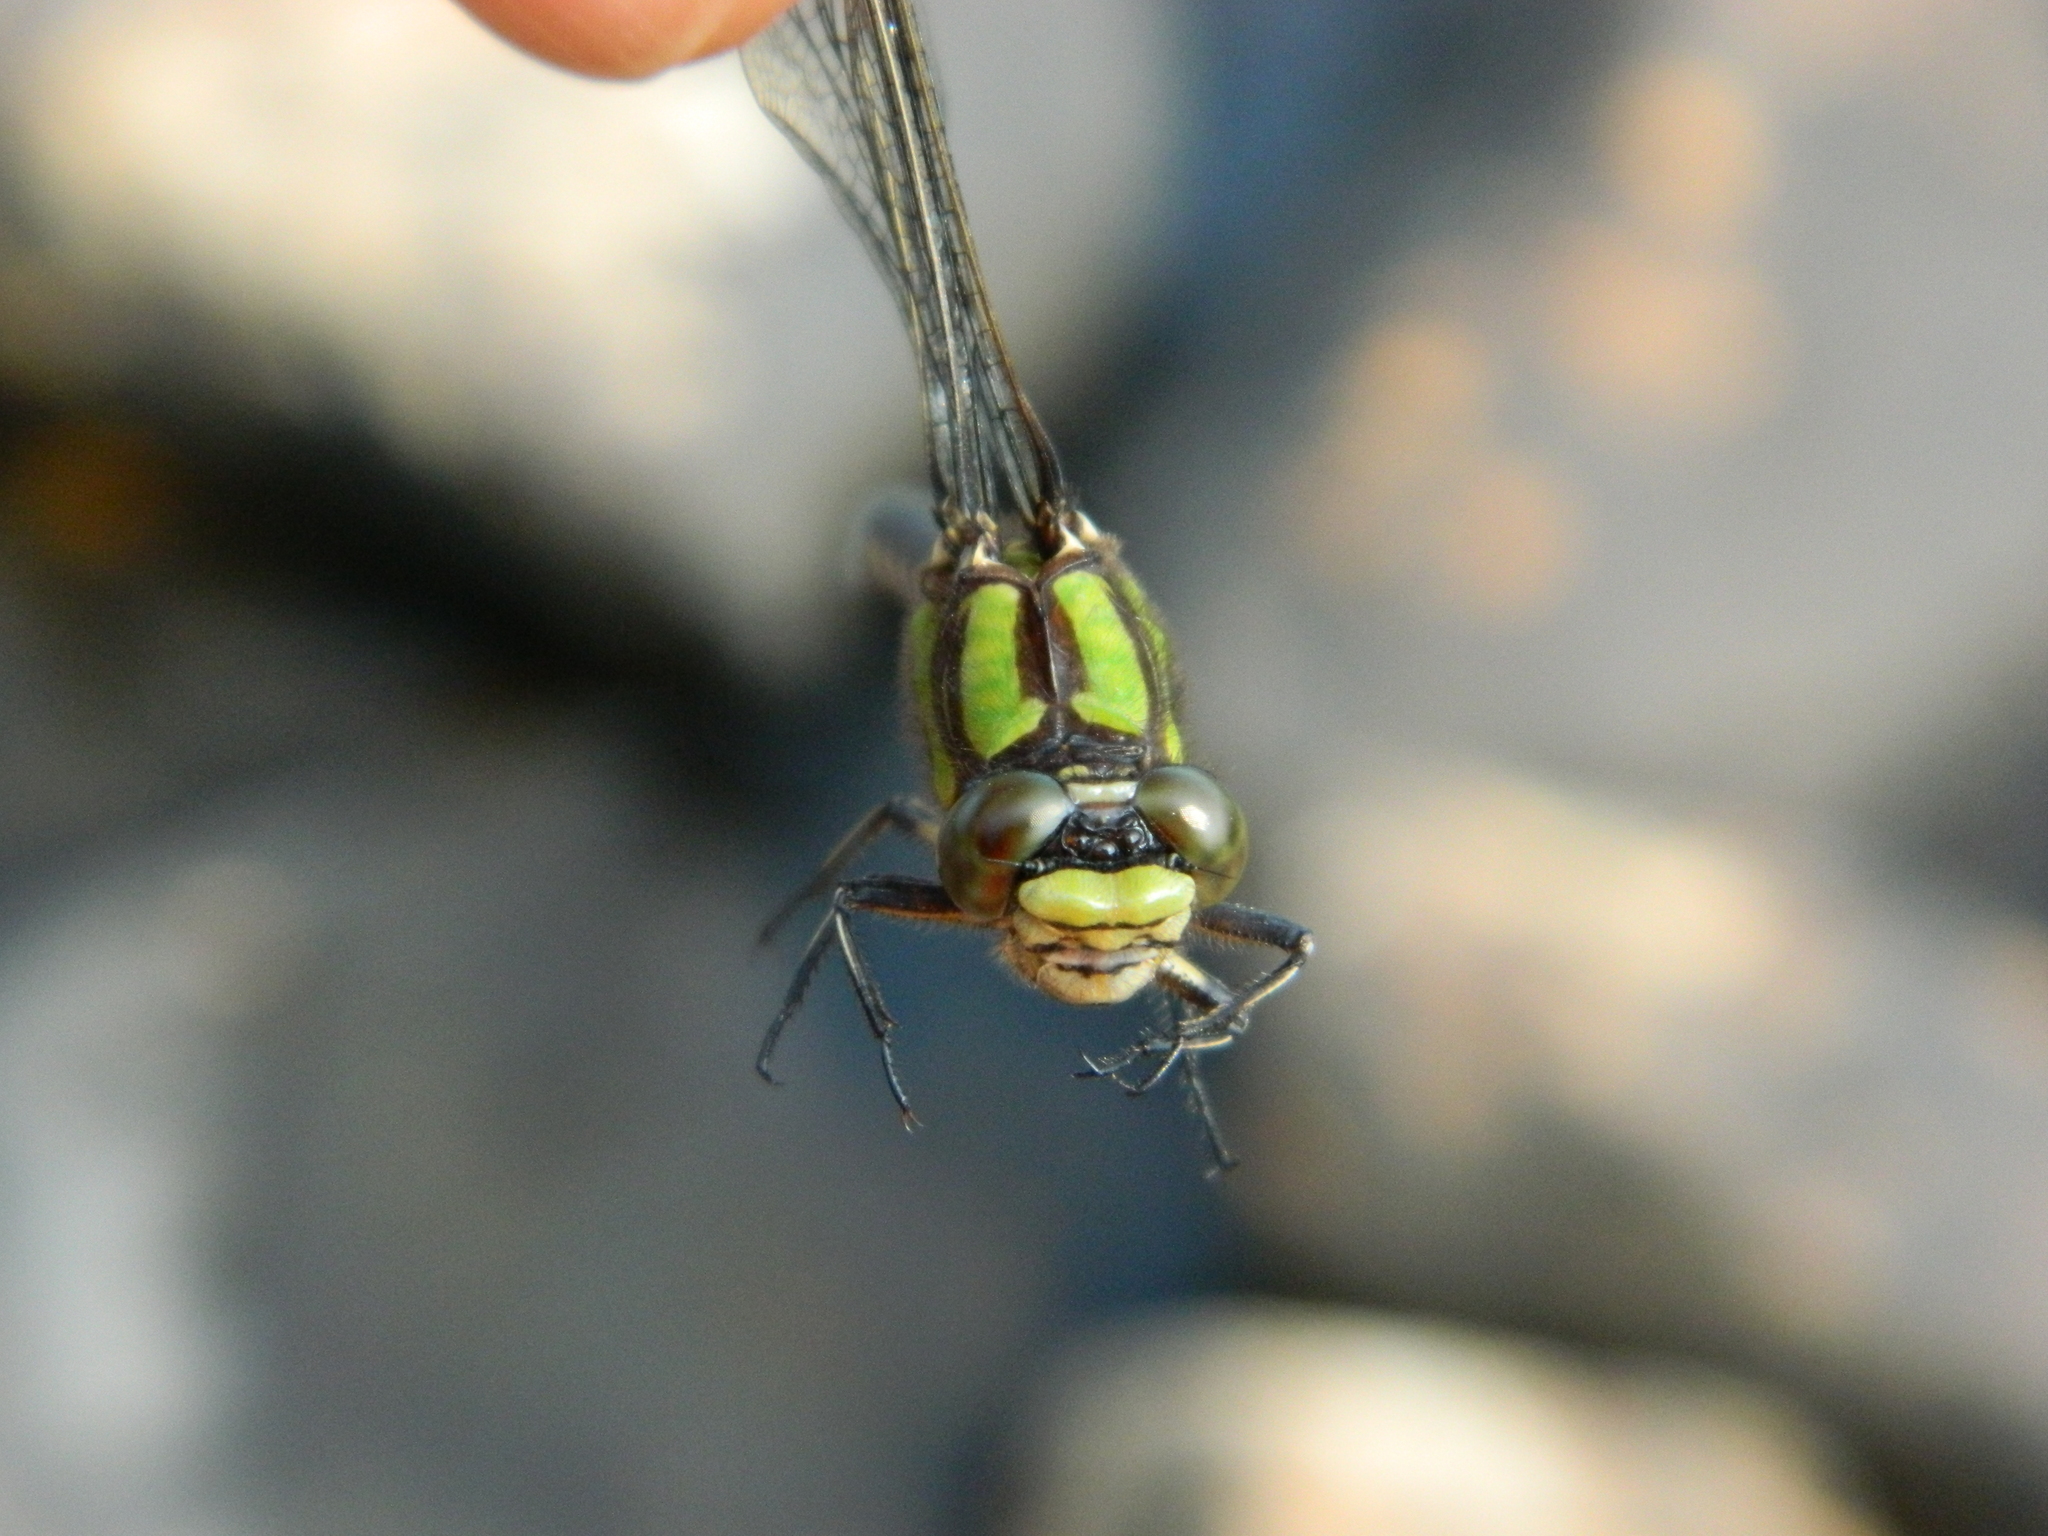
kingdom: Animalia
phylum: Arthropoda
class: Insecta
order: Odonata
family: Gomphidae
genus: Ophiogomphus
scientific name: Ophiogomphus colubrinus
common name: Boreal snaketail
